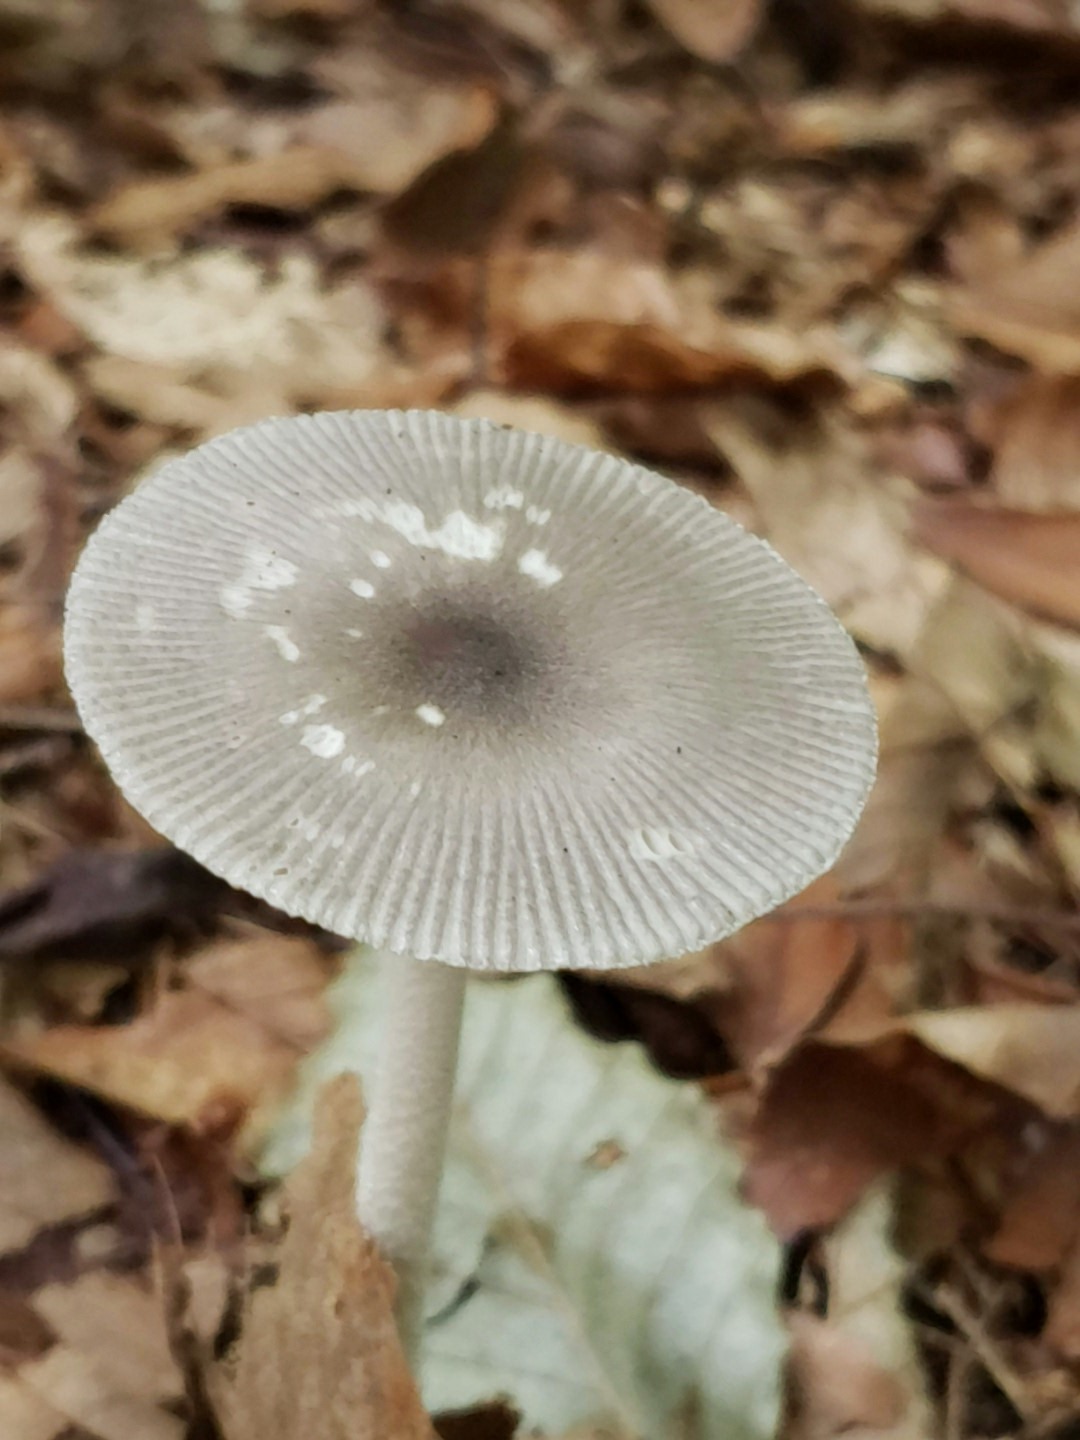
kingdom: Fungi
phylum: Basidiomycota
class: Agaricomycetes
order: Agaricales
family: Amanitaceae
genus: Amanita
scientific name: Amanita vaginata
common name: Grisette
